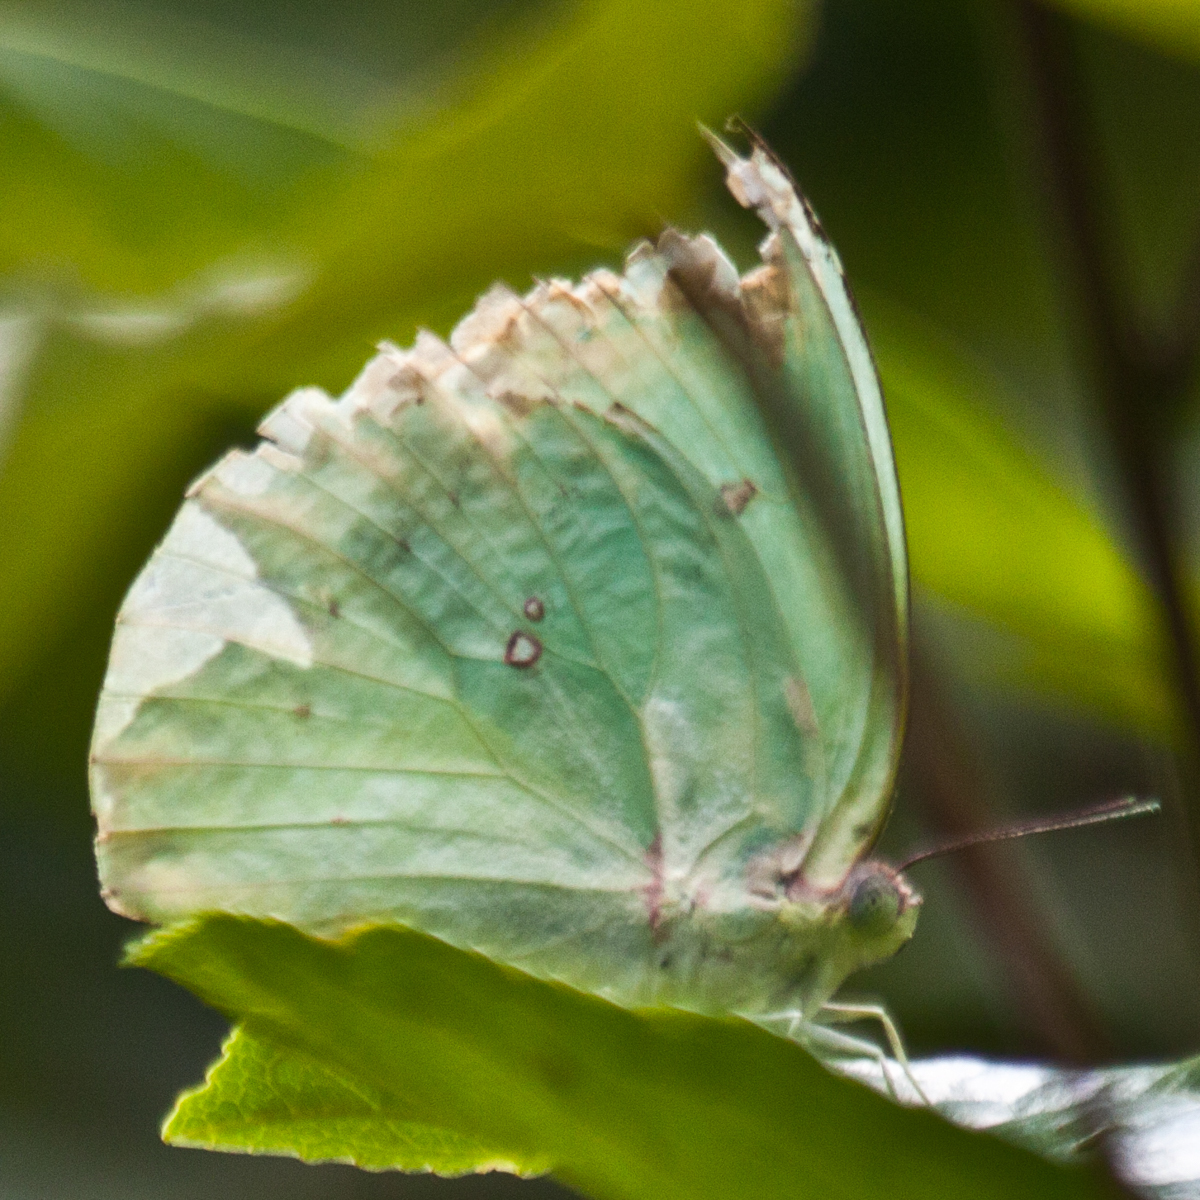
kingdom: Animalia
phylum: Arthropoda
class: Insecta
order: Lepidoptera
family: Pieridae
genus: Catopsilia
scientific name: Catopsilia pomona
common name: Common emigrant
